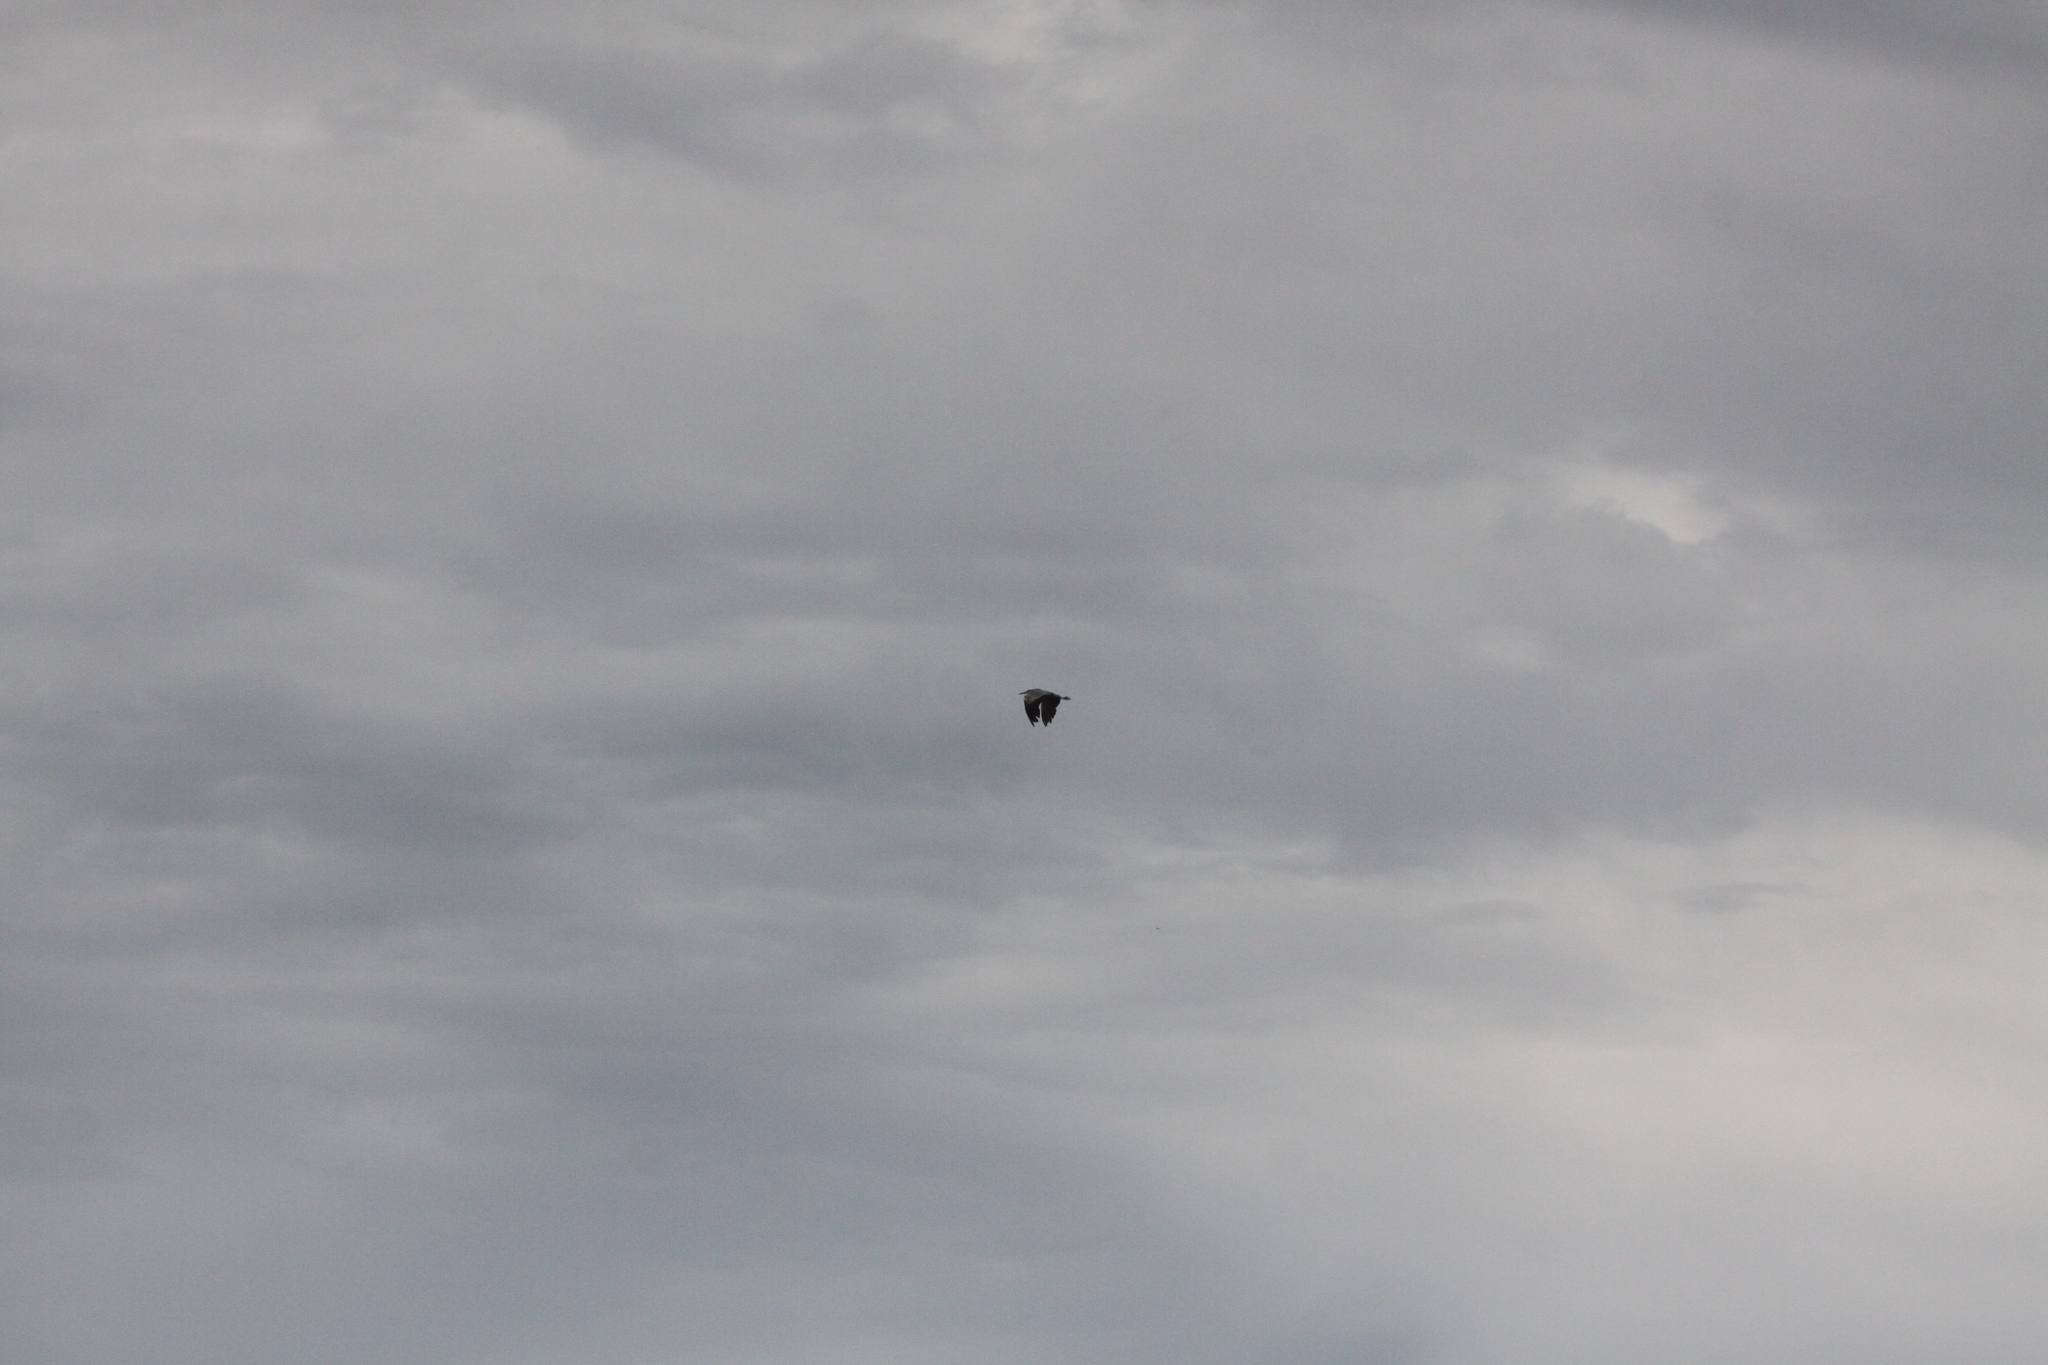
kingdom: Animalia
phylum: Chordata
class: Aves
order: Pelecaniformes
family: Ardeidae
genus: Ardea
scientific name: Ardea cinerea
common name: Grey heron
